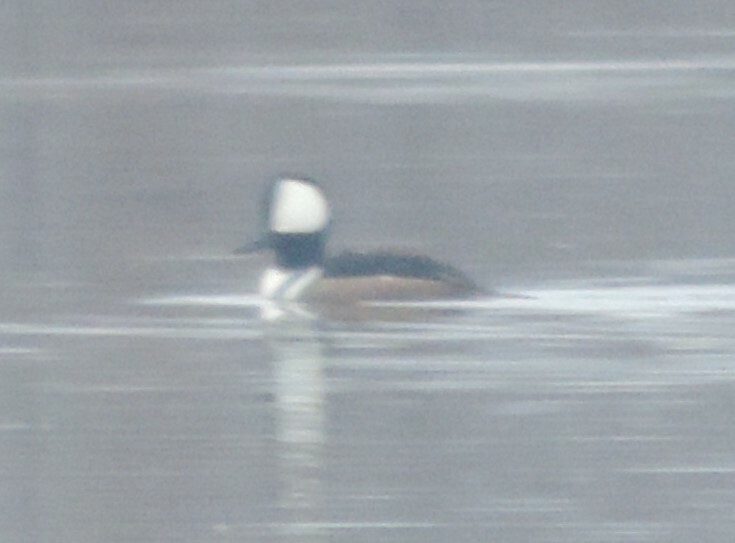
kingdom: Animalia
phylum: Chordata
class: Aves
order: Anseriformes
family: Anatidae
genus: Lophodytes
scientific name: Lophodytes cucullatus
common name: Hooded merganser
